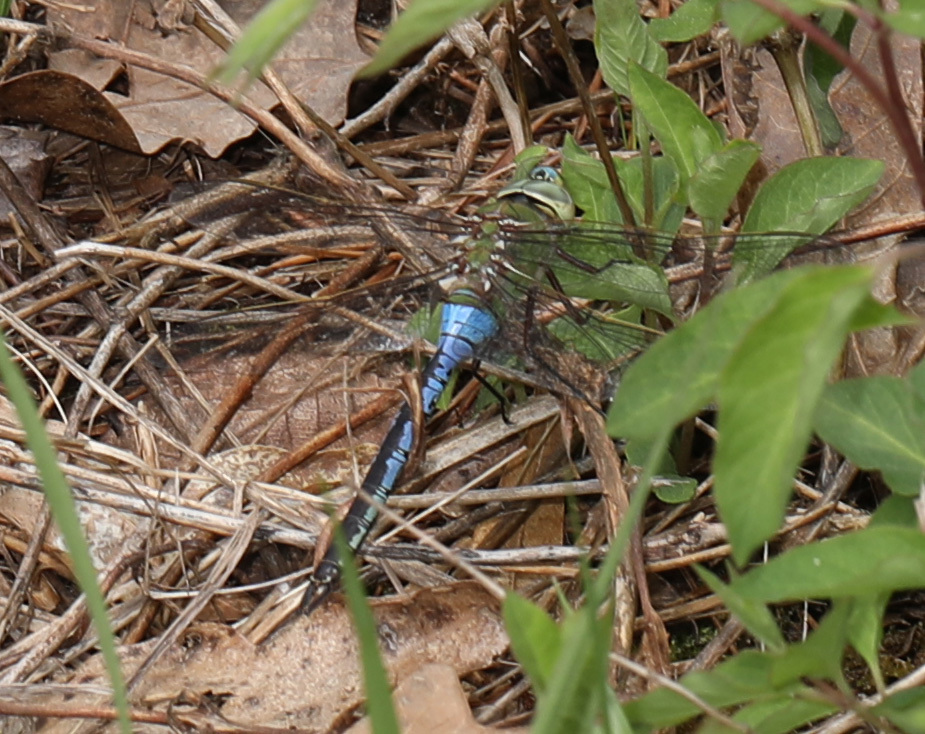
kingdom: Animalia
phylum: Arthropoda
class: Insecta
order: Odonata
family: Aeshnidae
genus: Anax
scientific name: Anax junius
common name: Common green darner
